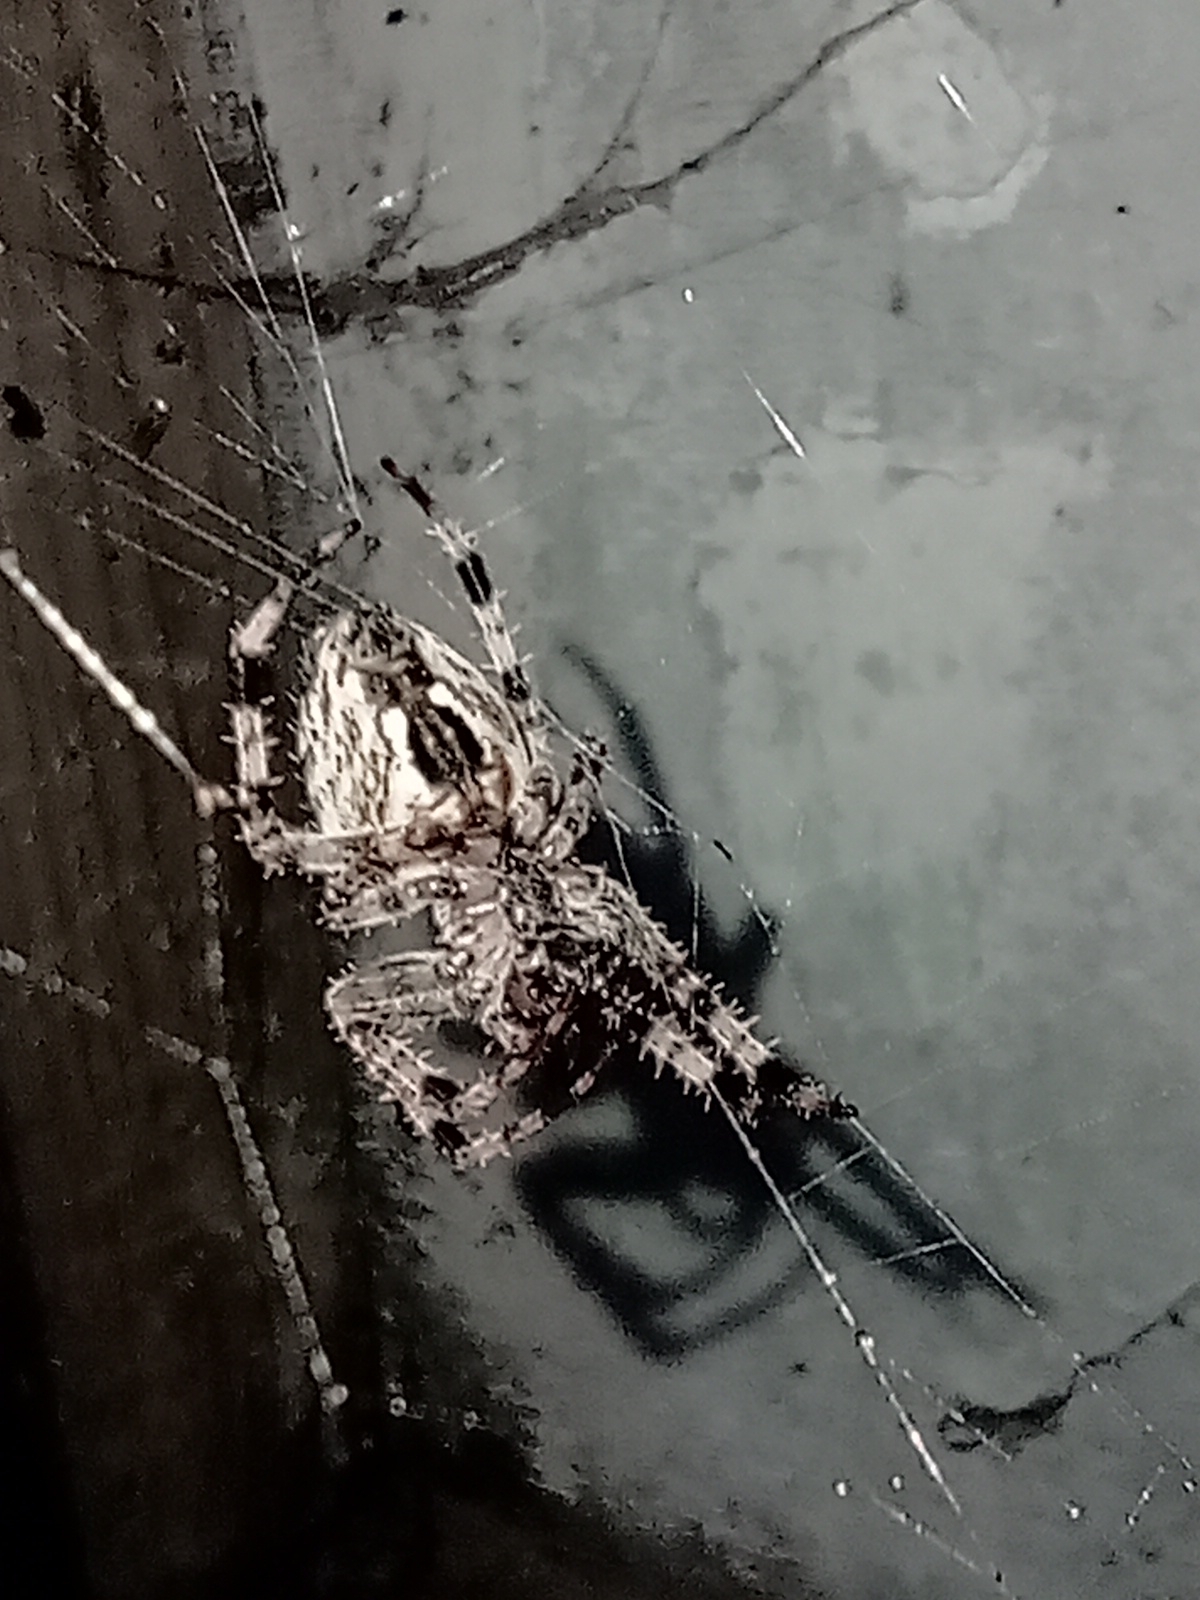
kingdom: Animalia
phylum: Arthropoda
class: Arachnida
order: Araneae
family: Araneidae
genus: Araneus
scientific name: Araneus diadematus
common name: Cross orbweaver
